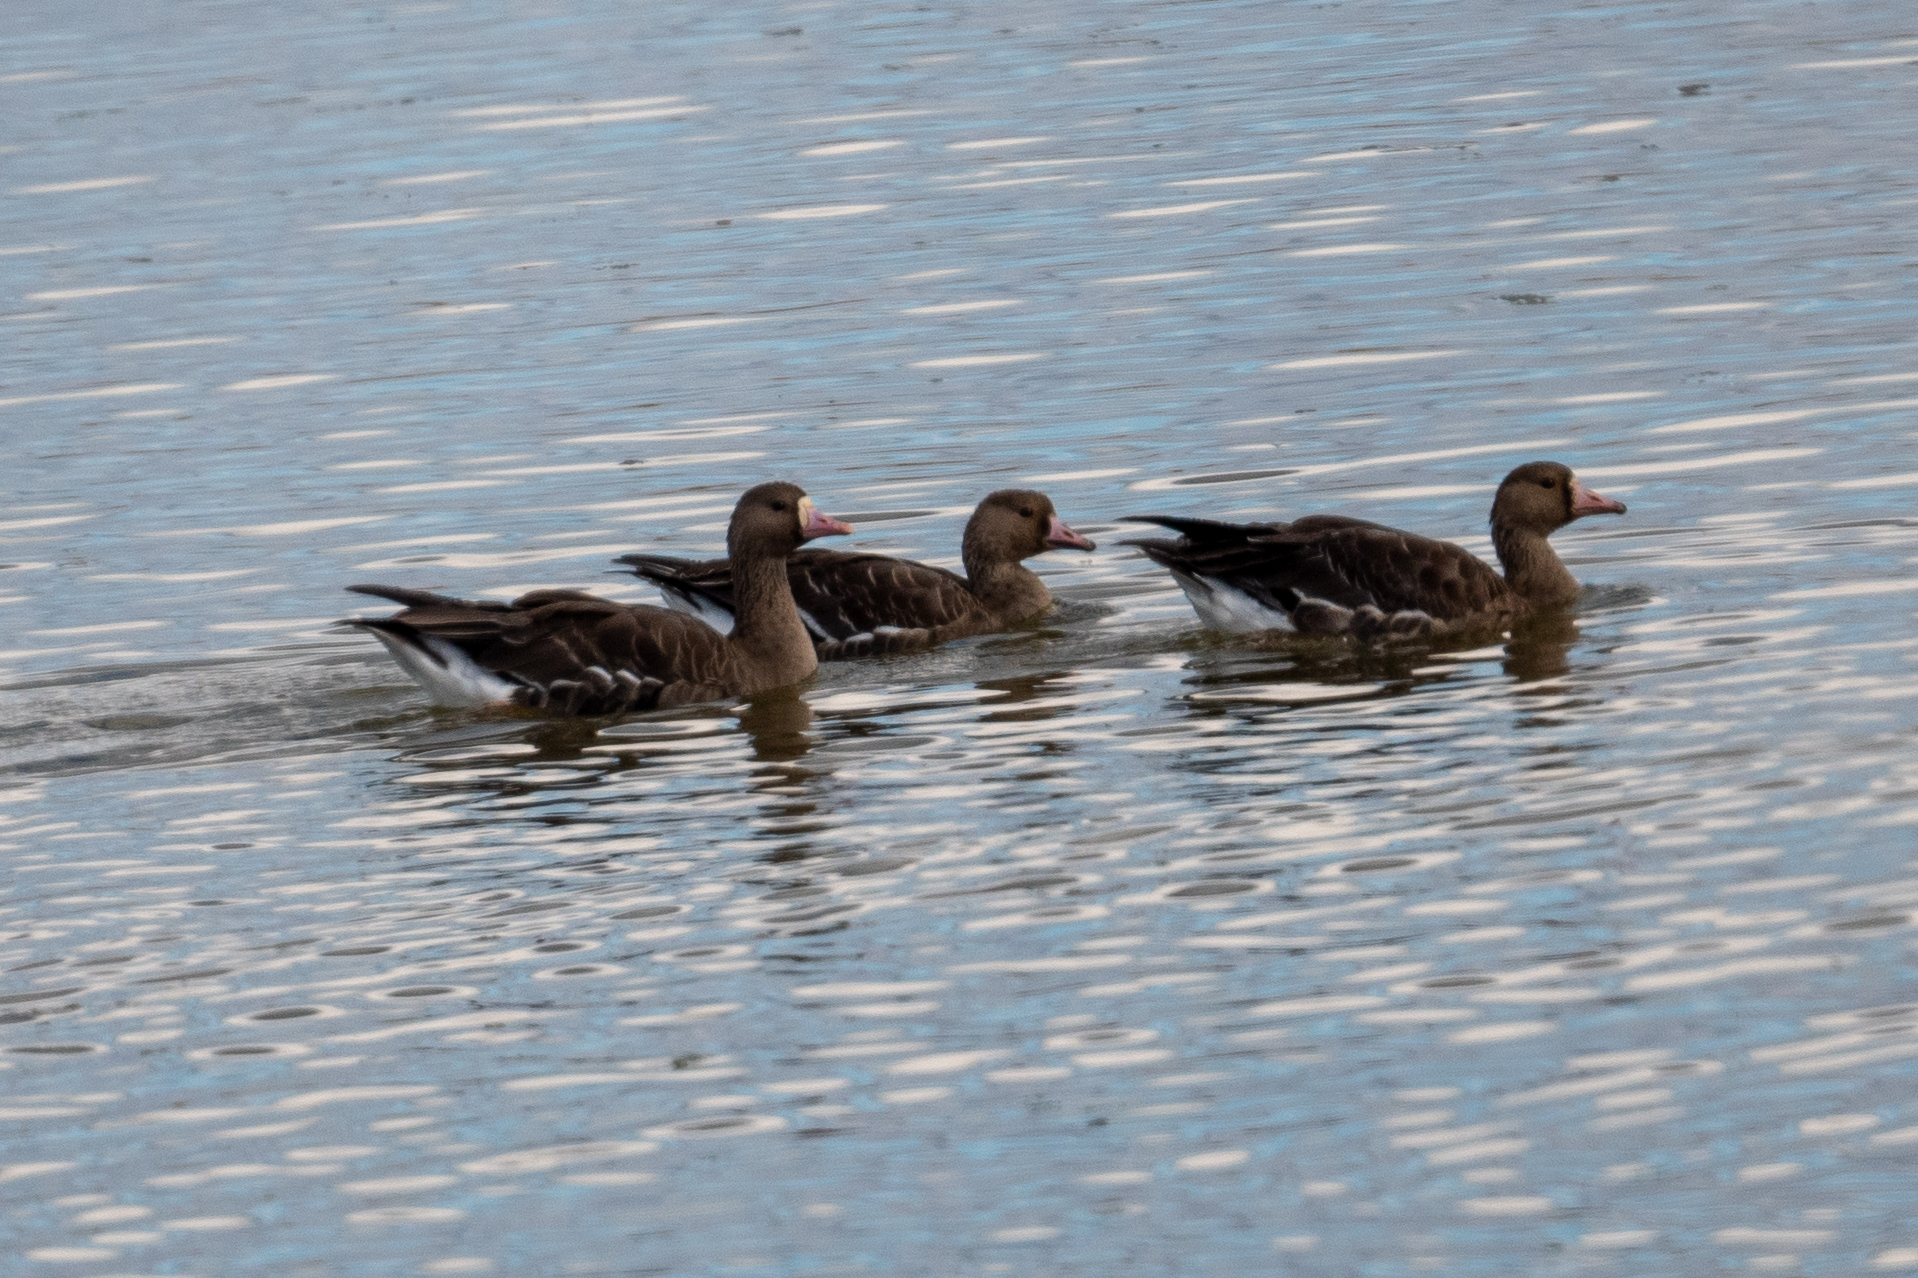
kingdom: Animalia
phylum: Chordata
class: Aves
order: Anseriformes
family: Anatidae
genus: Anser
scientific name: Anser albifrons
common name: Greater white-fronted goose
